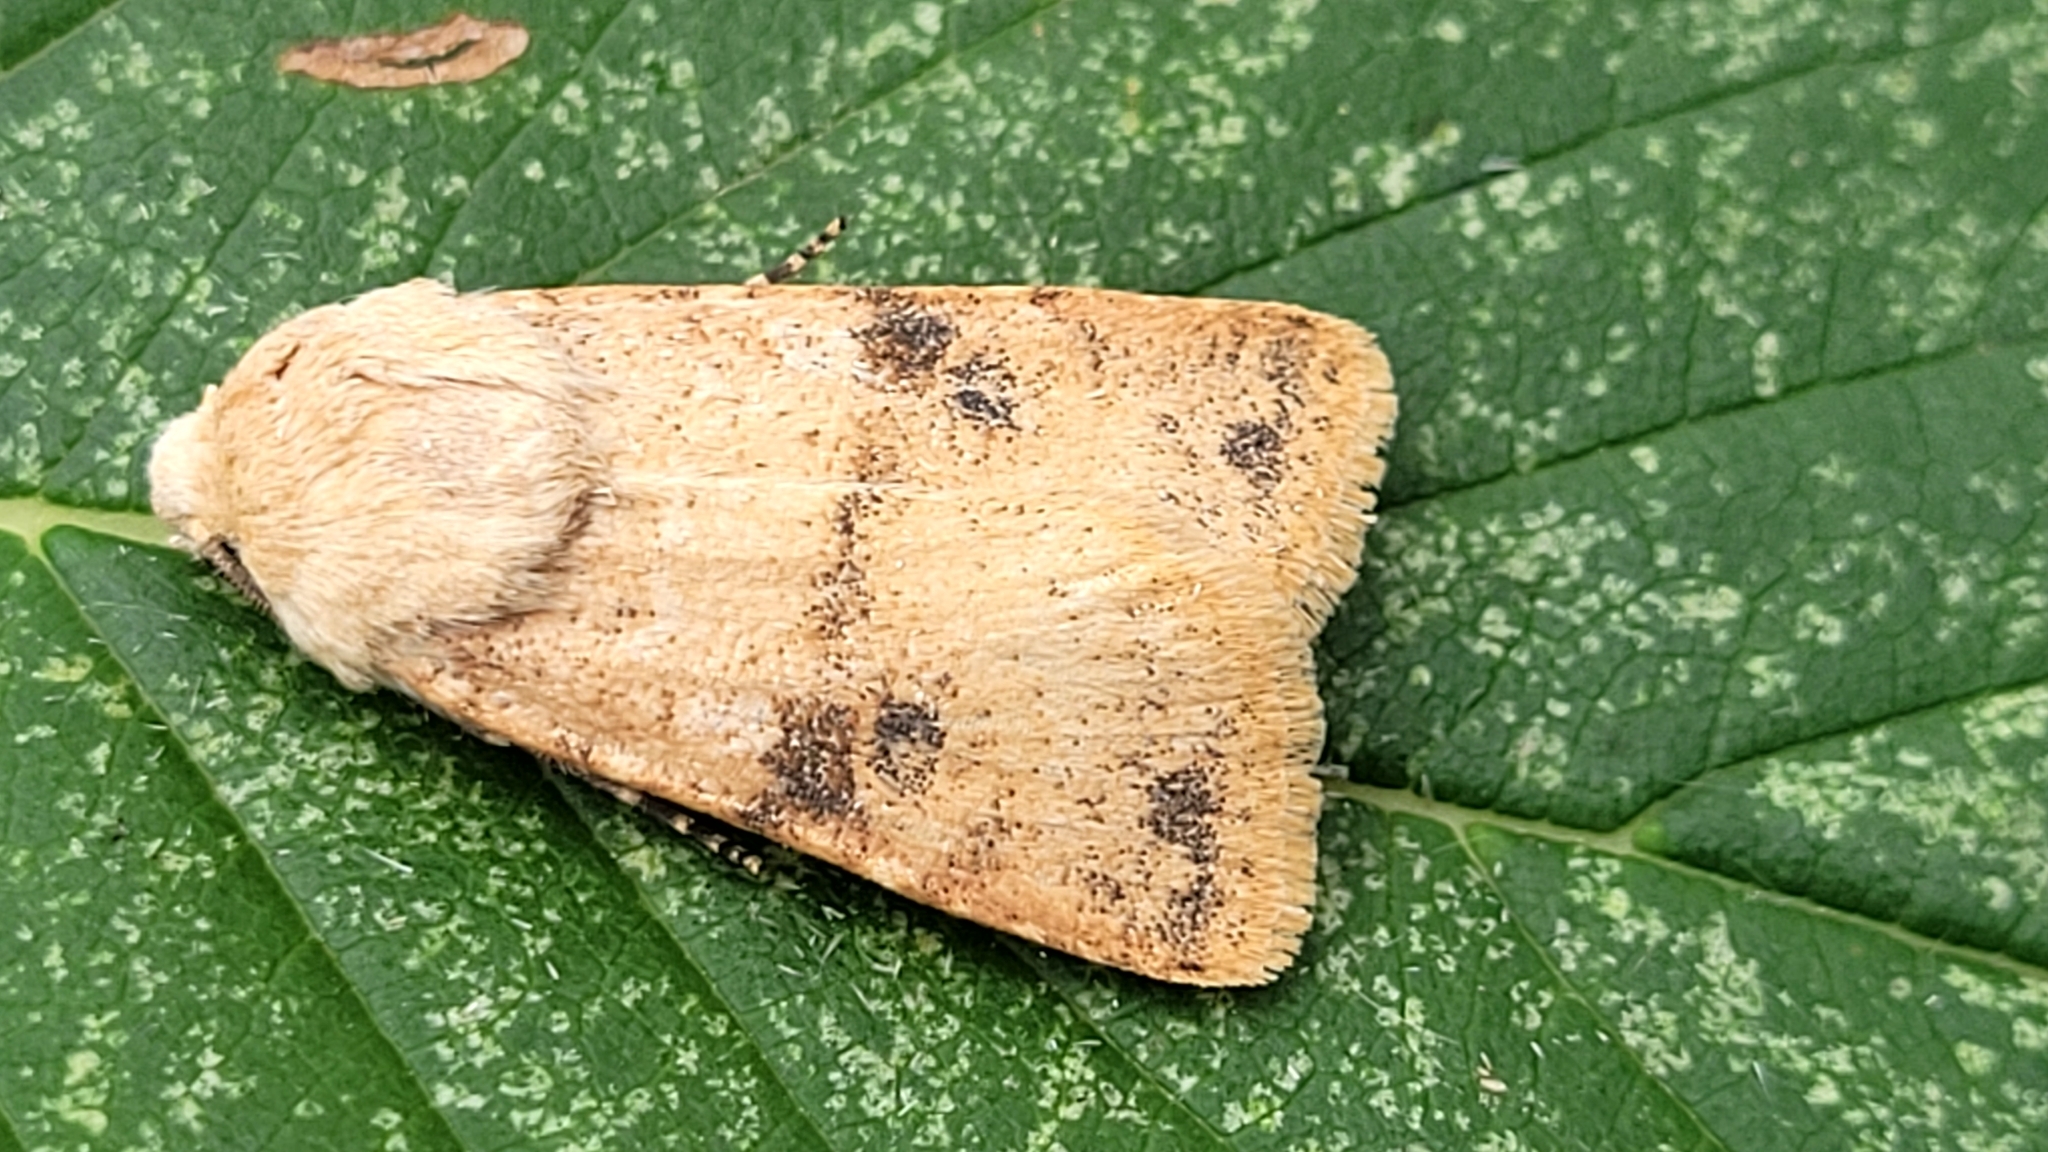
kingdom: Animalia
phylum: Arthropoda
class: Insecta
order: Lepidoptera
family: Noctuidae
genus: Euxoa
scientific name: Euxoa teleboa
